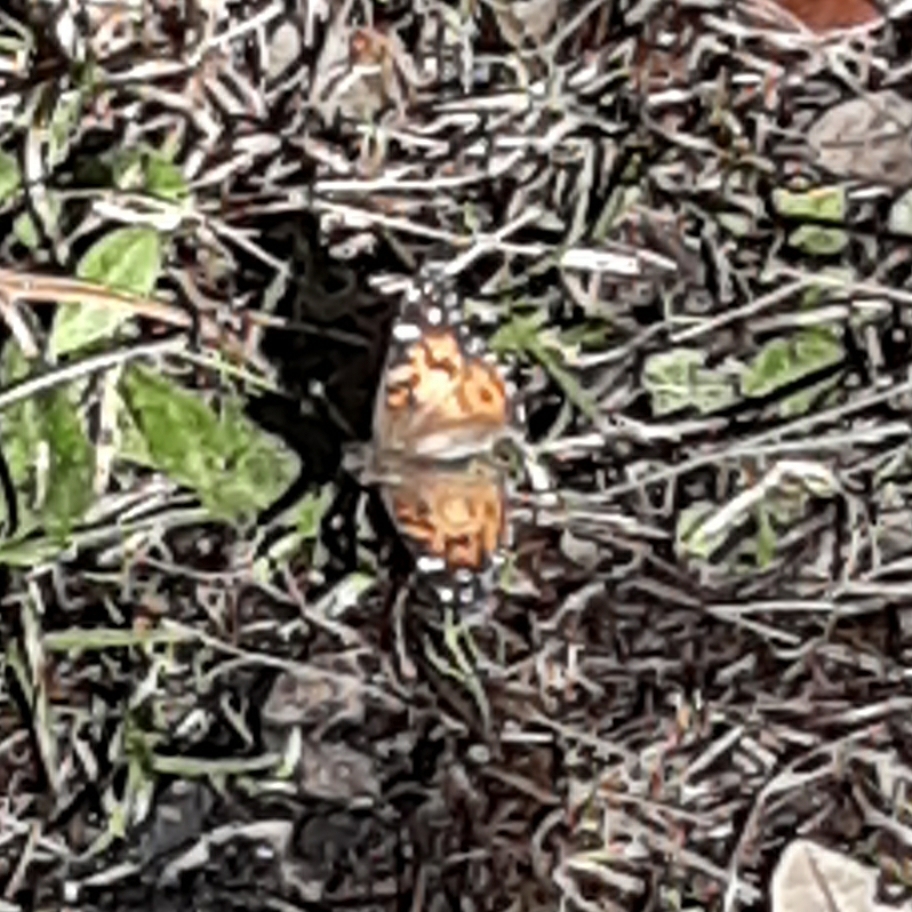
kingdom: Animalia
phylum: Arthropoda
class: Insecta
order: Lepidoptera
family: Nymphalidae
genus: Vanessa
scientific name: Vanessa virginiensis
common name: American lady
